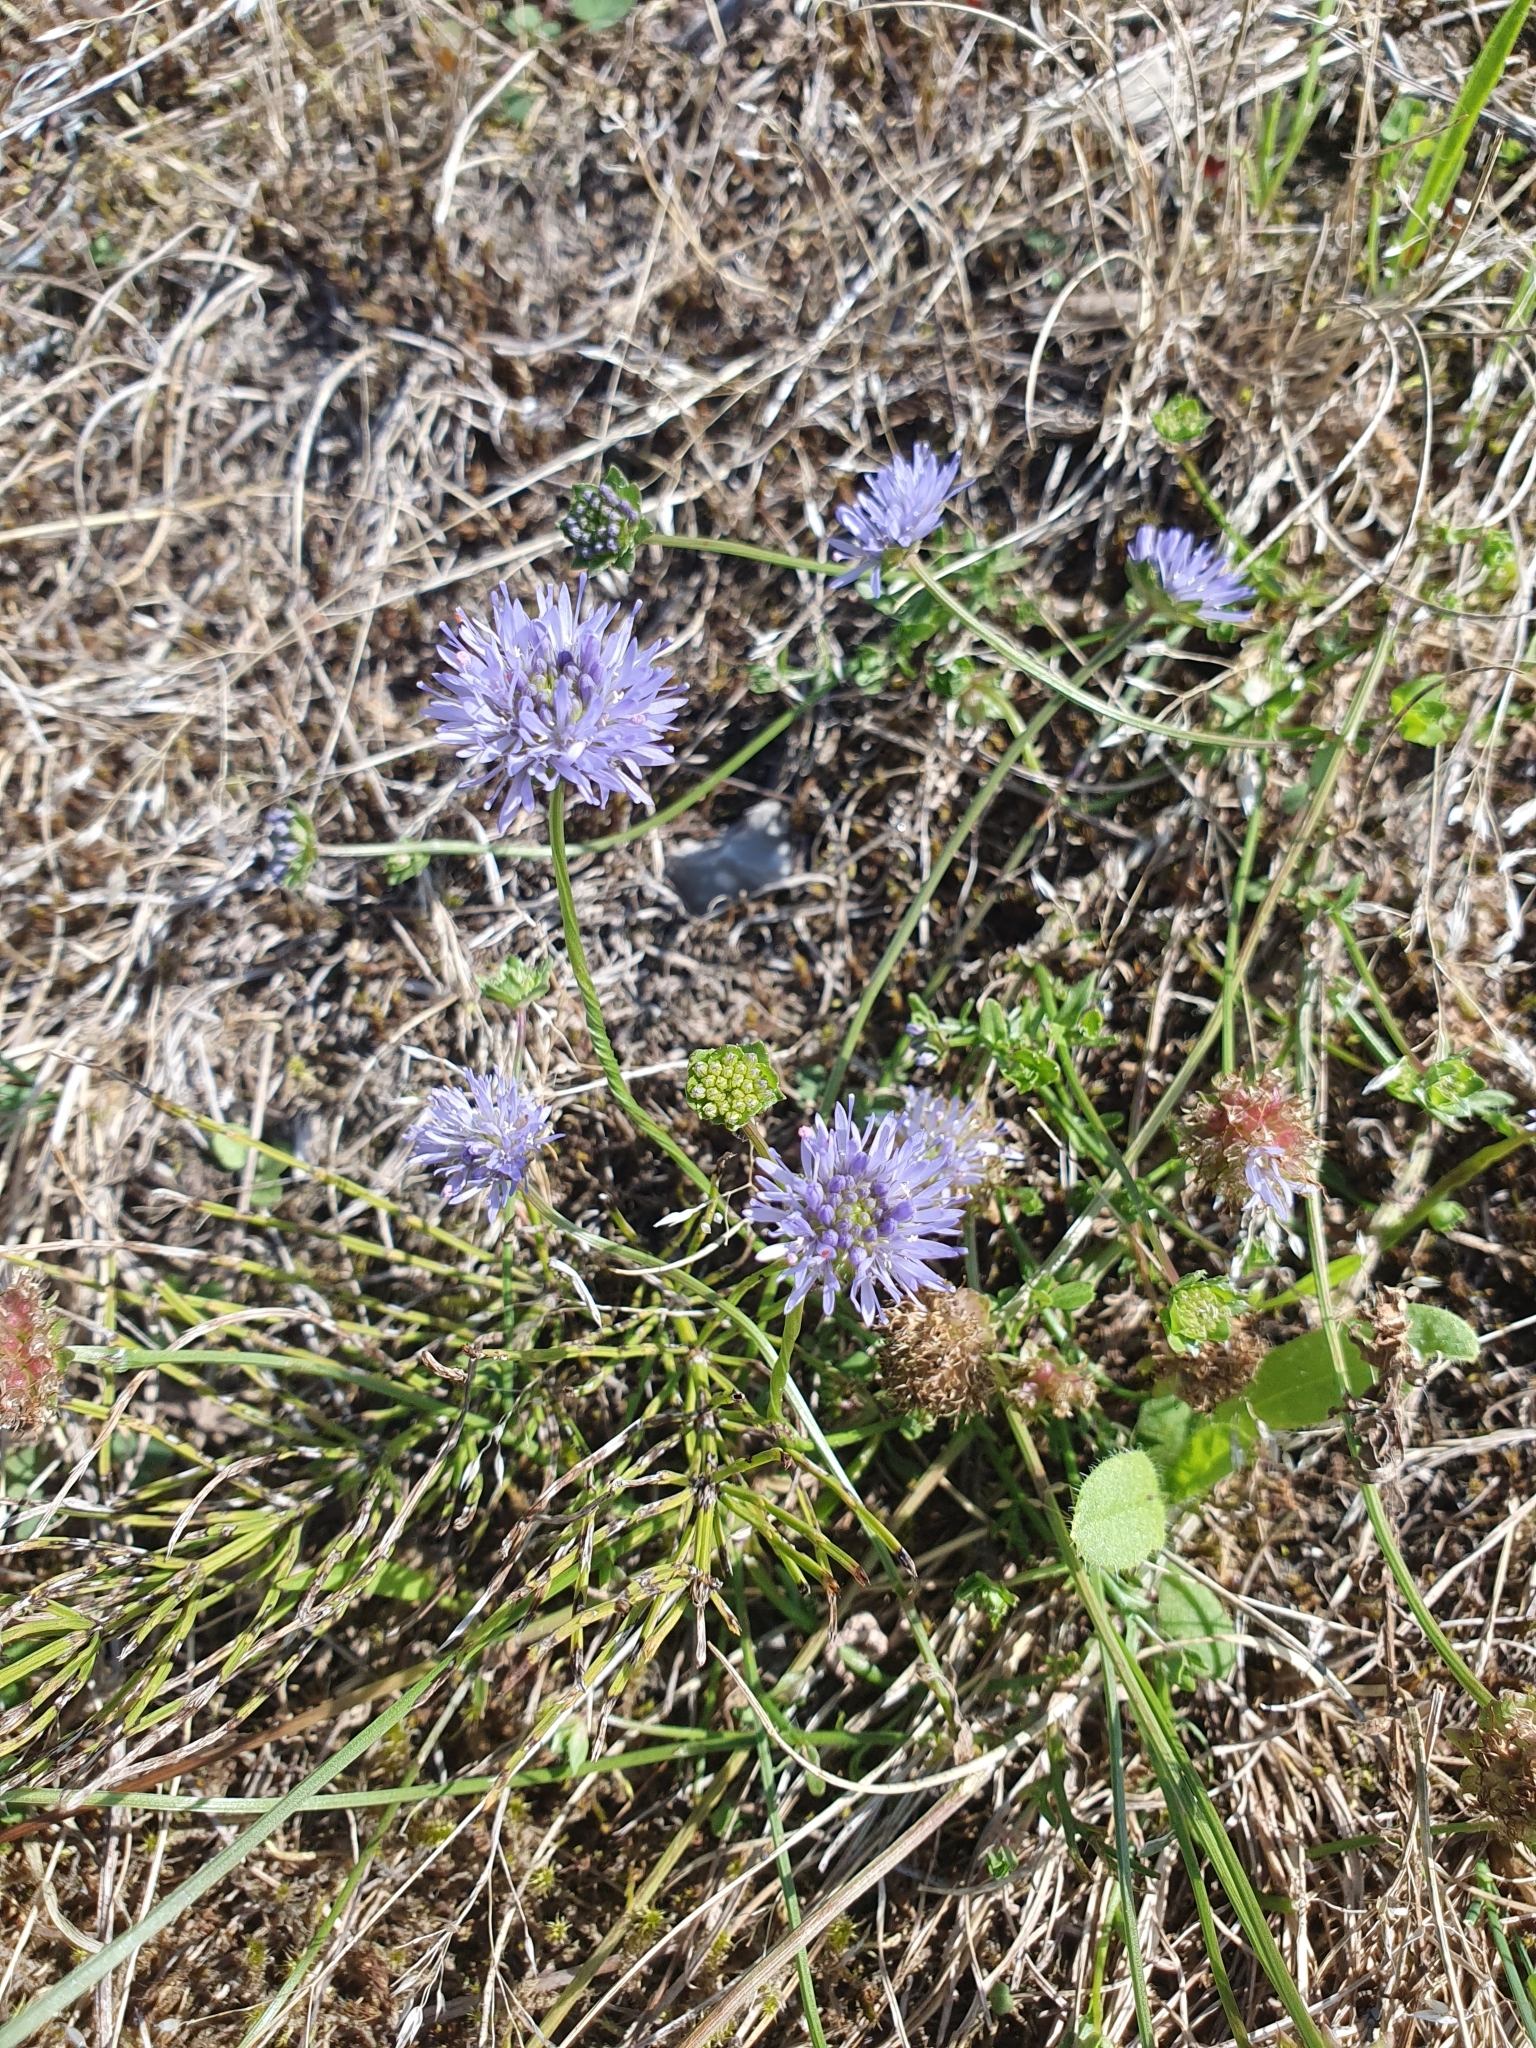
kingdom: Plantae
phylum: Tracheophyta
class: Magnoliopsida
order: Asterales
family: Campanulaceae
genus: Jasione
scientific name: Jasione montana
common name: Sheep's-bit
